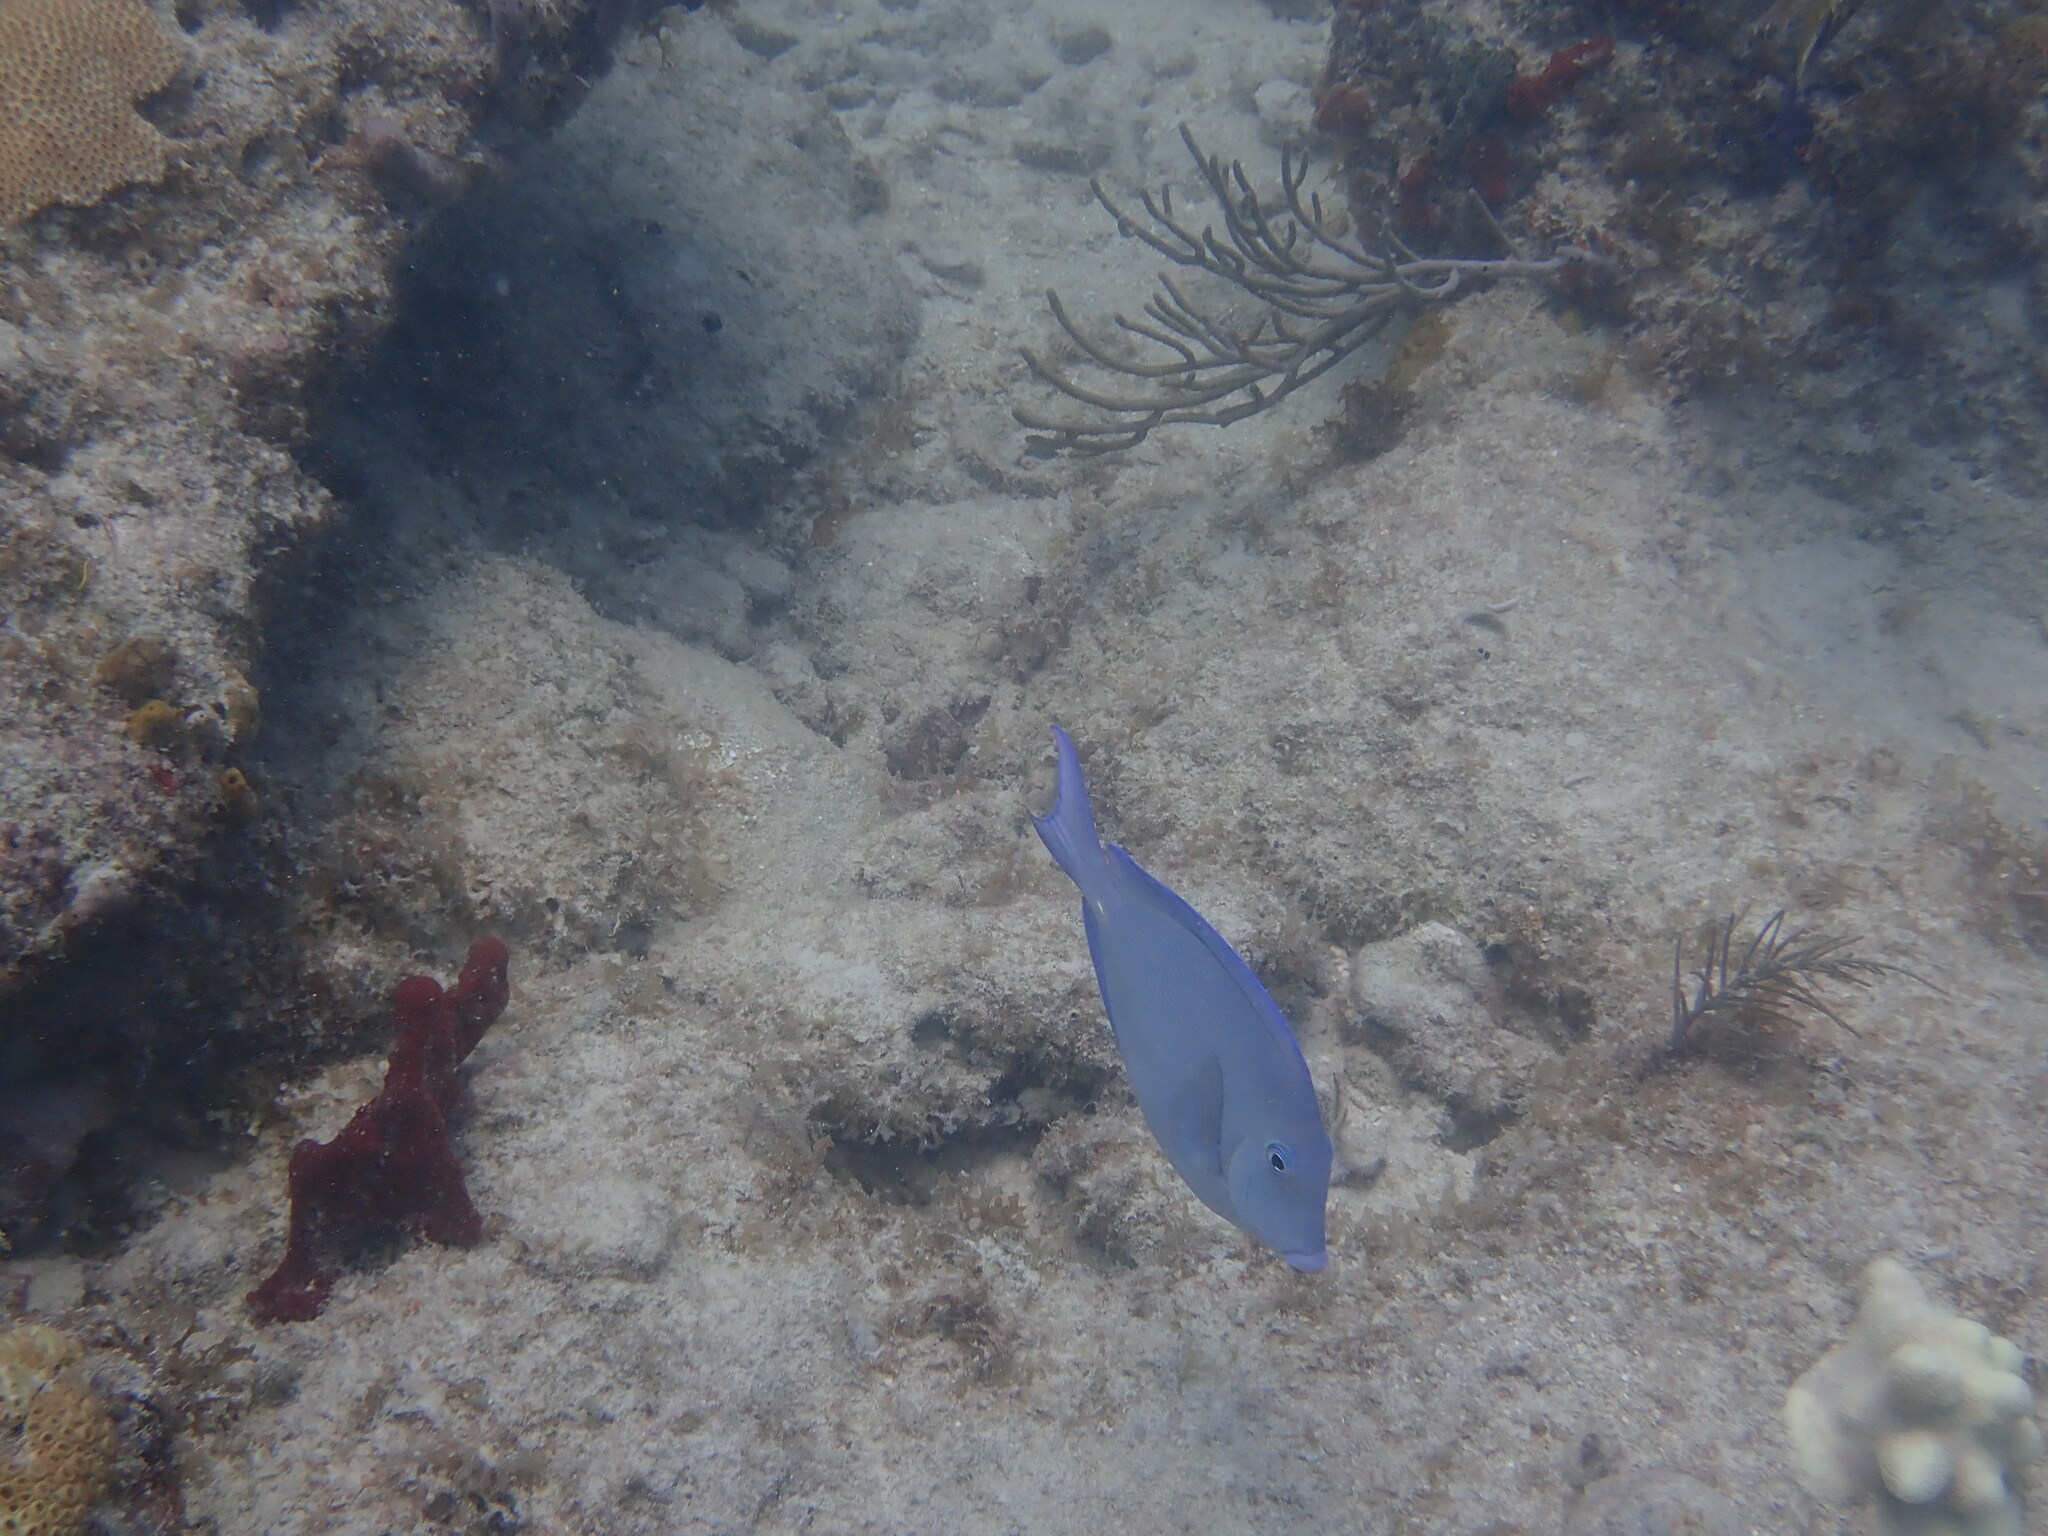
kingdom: Animalia
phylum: Chordata
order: Perciformes
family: Acanthuridae
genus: Acanthurus
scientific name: Acanthurus coeruleus
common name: Blue tang
